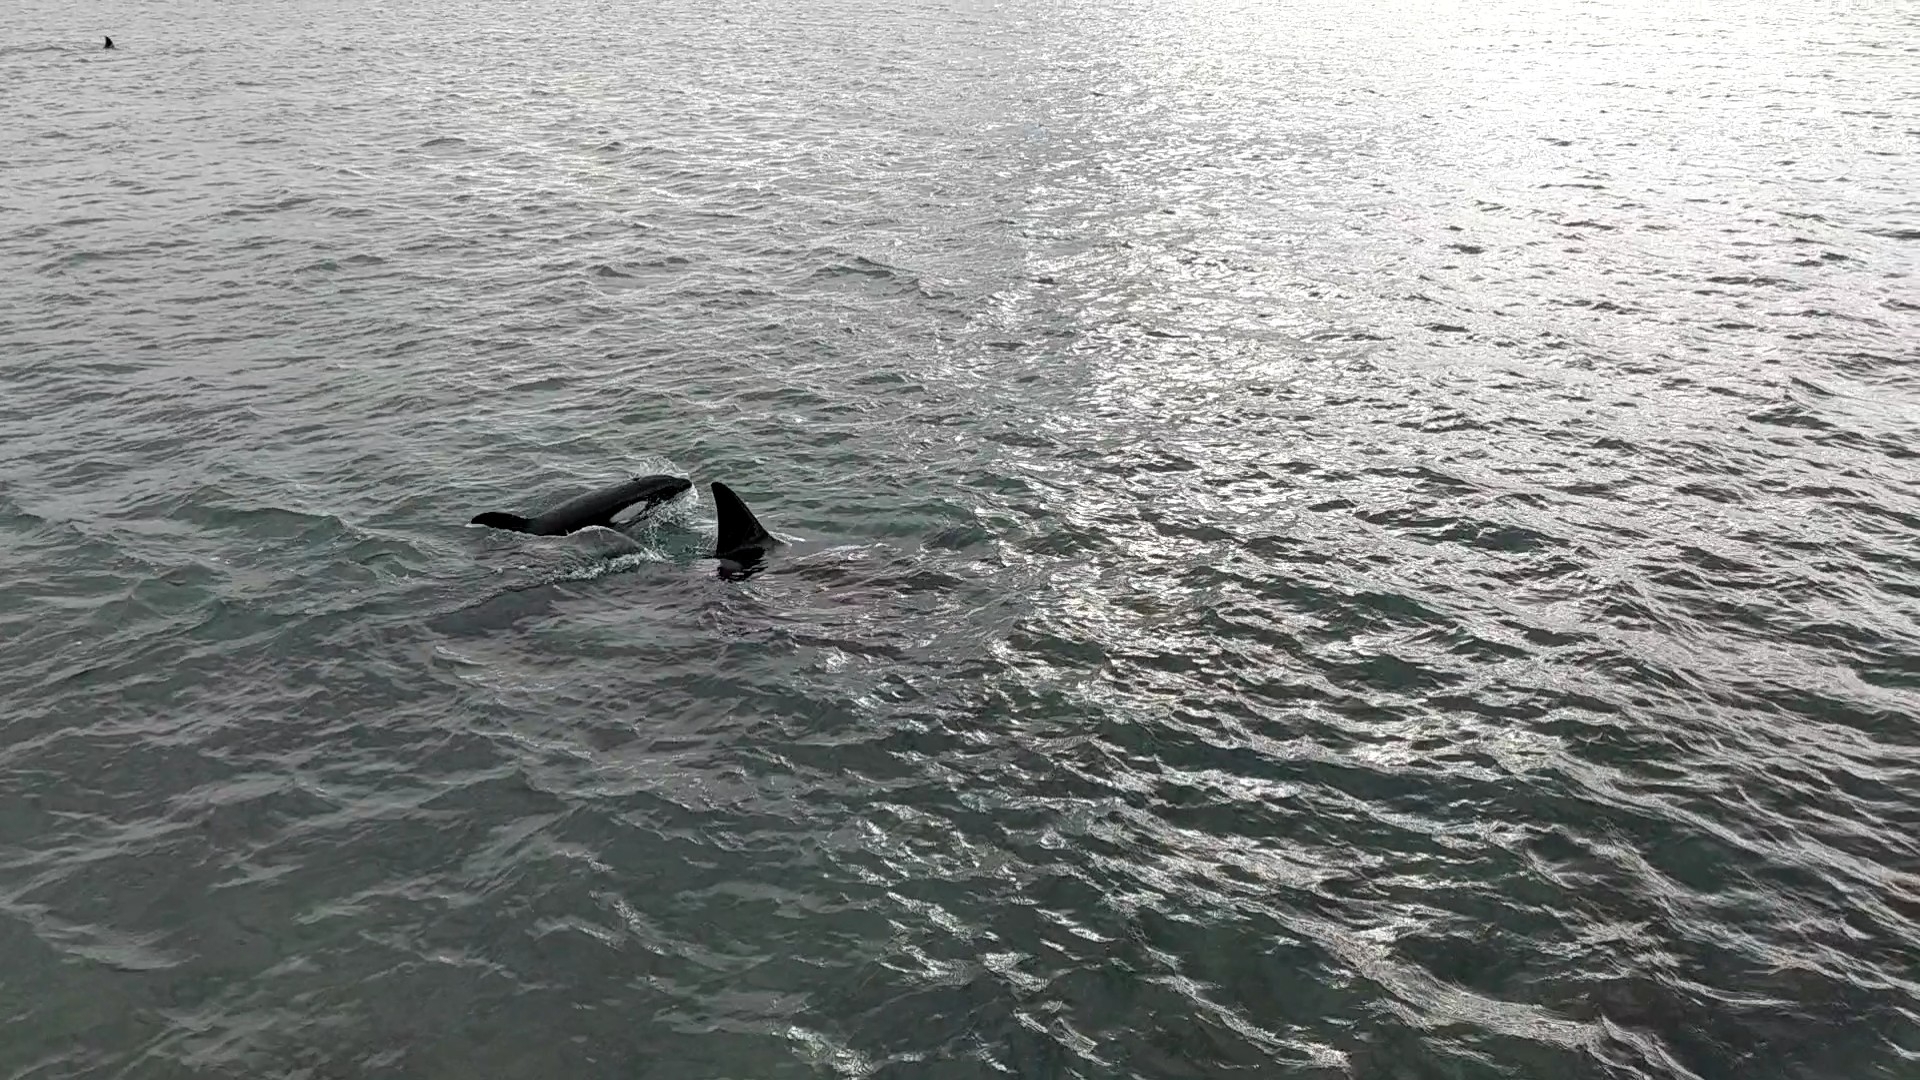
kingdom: Animalia
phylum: Chordata
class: Mammalia
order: Cetacea
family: Delphinidae
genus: Orcinus
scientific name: Orcinus orca
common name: Killer whale
